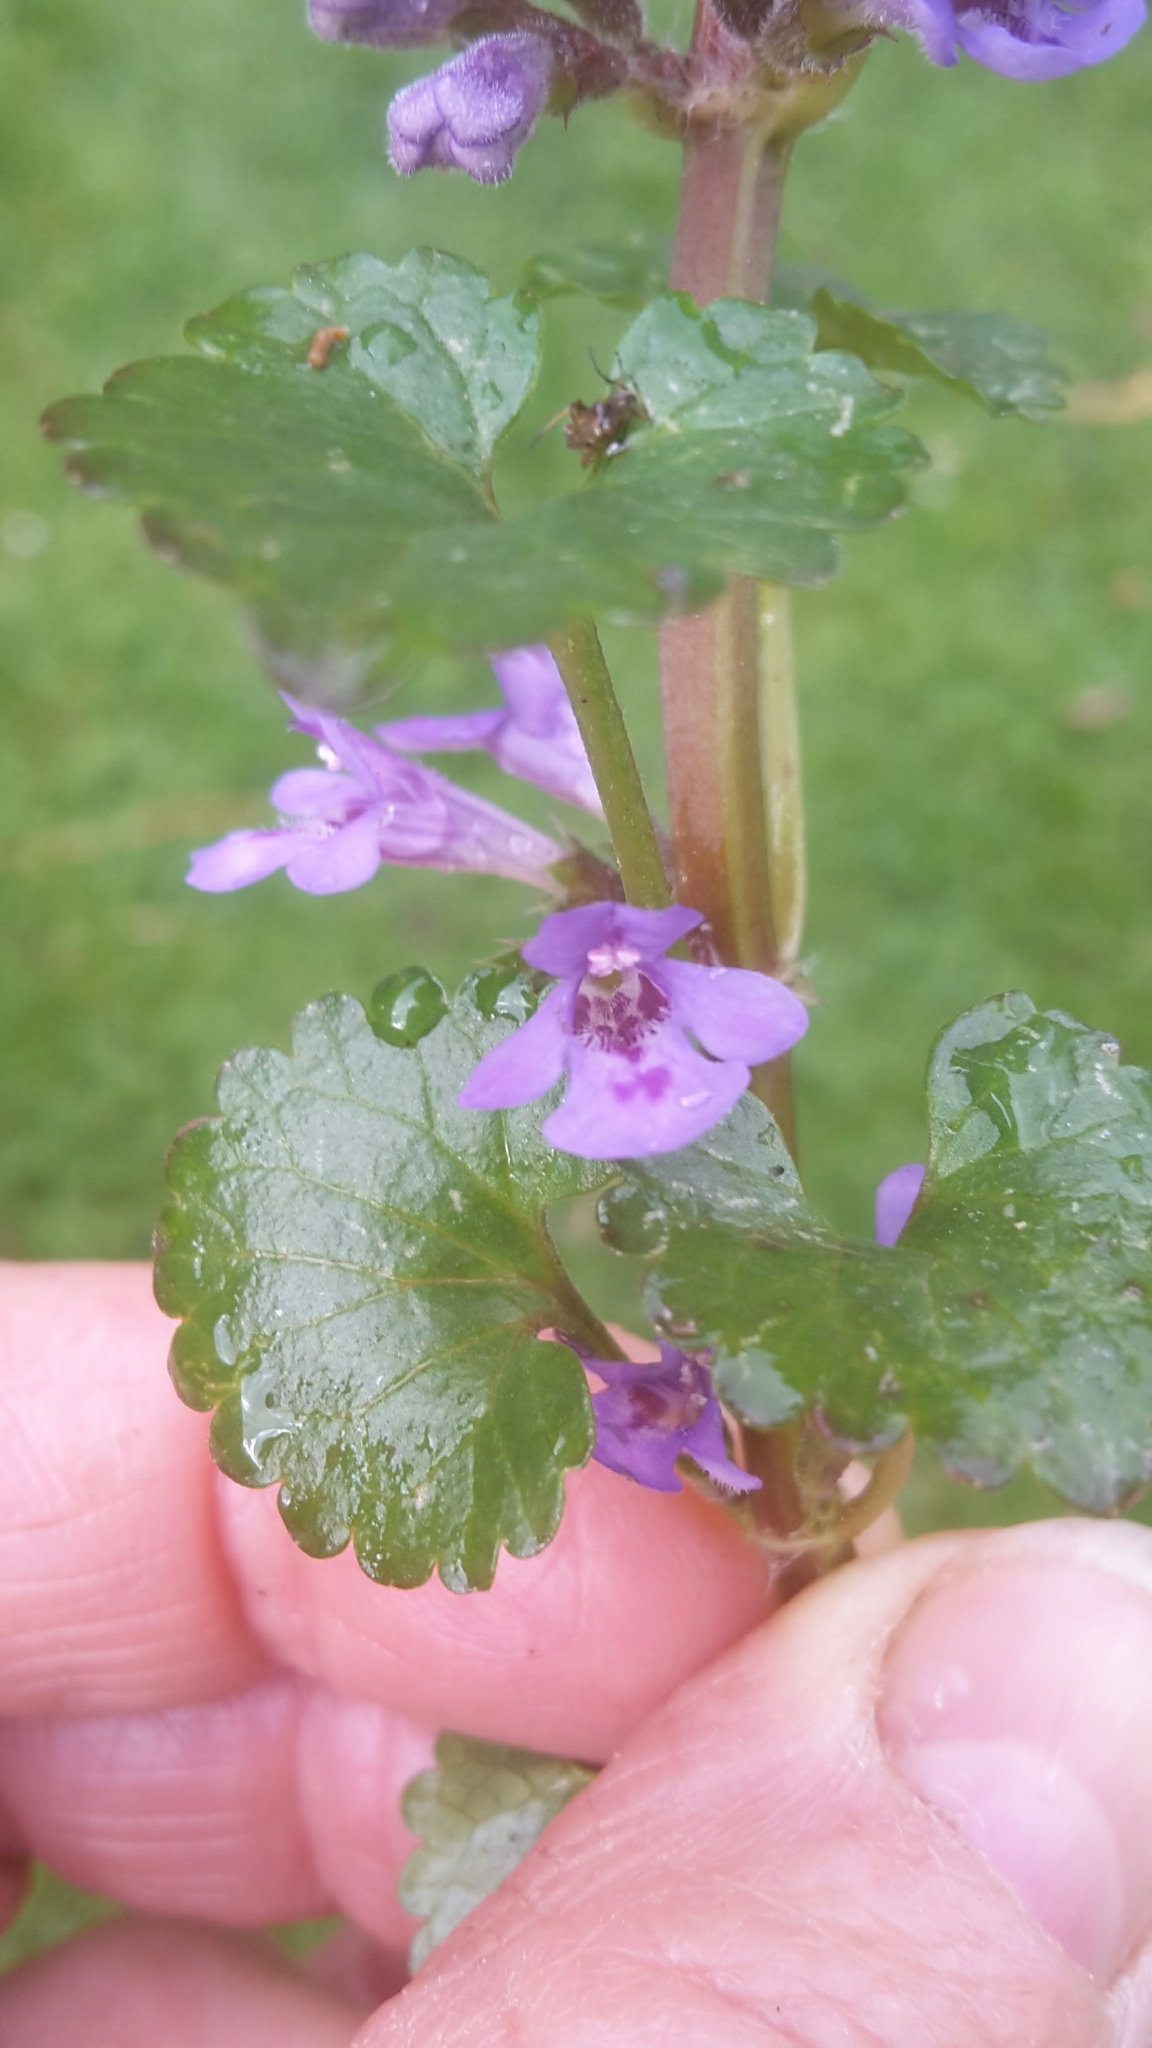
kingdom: Plantae
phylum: Tracheophyta
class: Magnoliopsida
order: Lamiales
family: Lamiaceae
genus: Glechoma
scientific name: Glechoma hederacea
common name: Ground ivy
